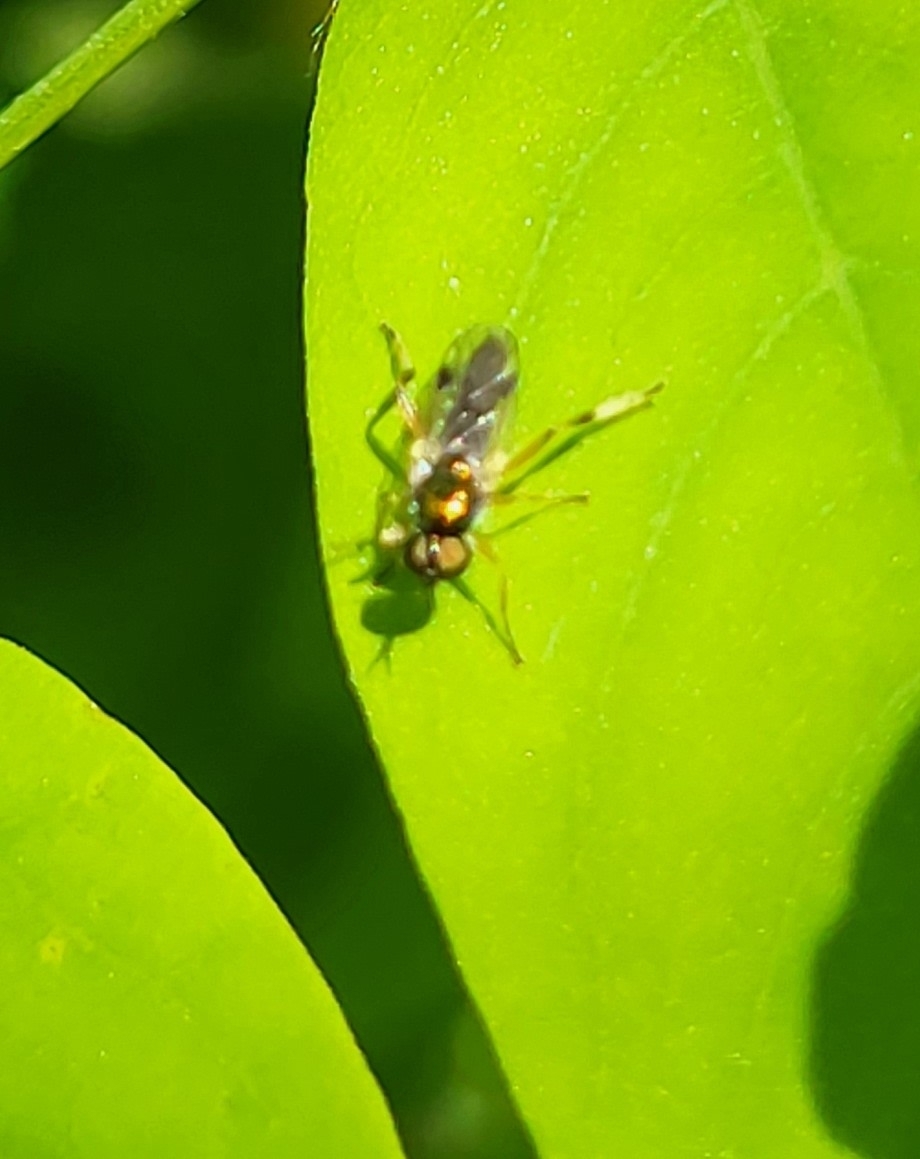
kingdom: Animalia
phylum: Arthropoda
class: Insecta
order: Diptera
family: Stratiomyidae
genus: Actina
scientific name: Actina viridis
